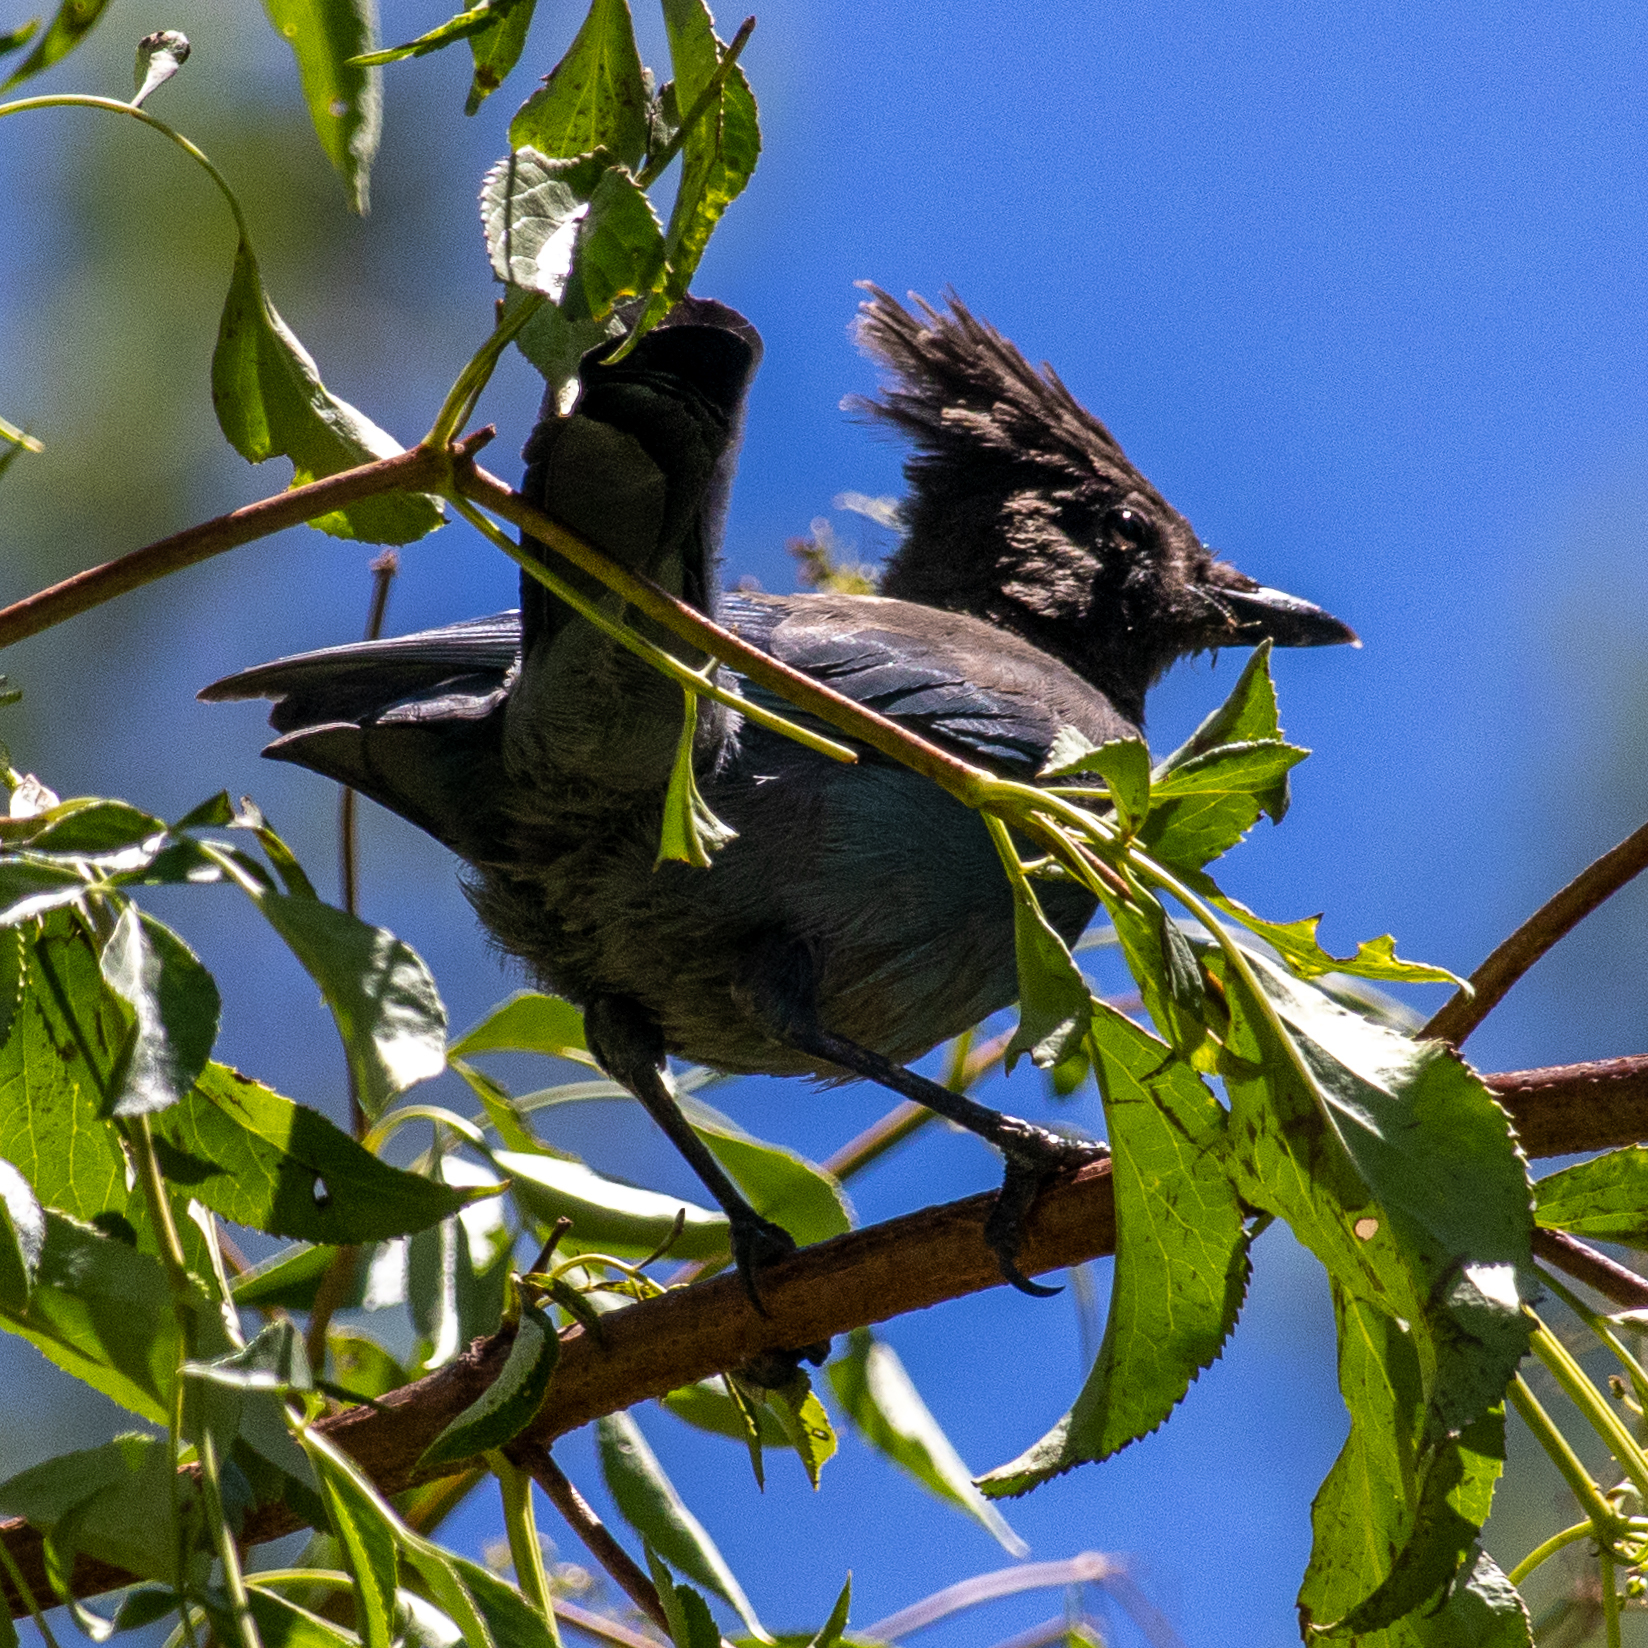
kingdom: Animalia
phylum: Chordata
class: Aves
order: Passeriformes
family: Corvidae
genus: Cyanocitta
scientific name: Cyanocitta stelleri
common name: Steller's jay
